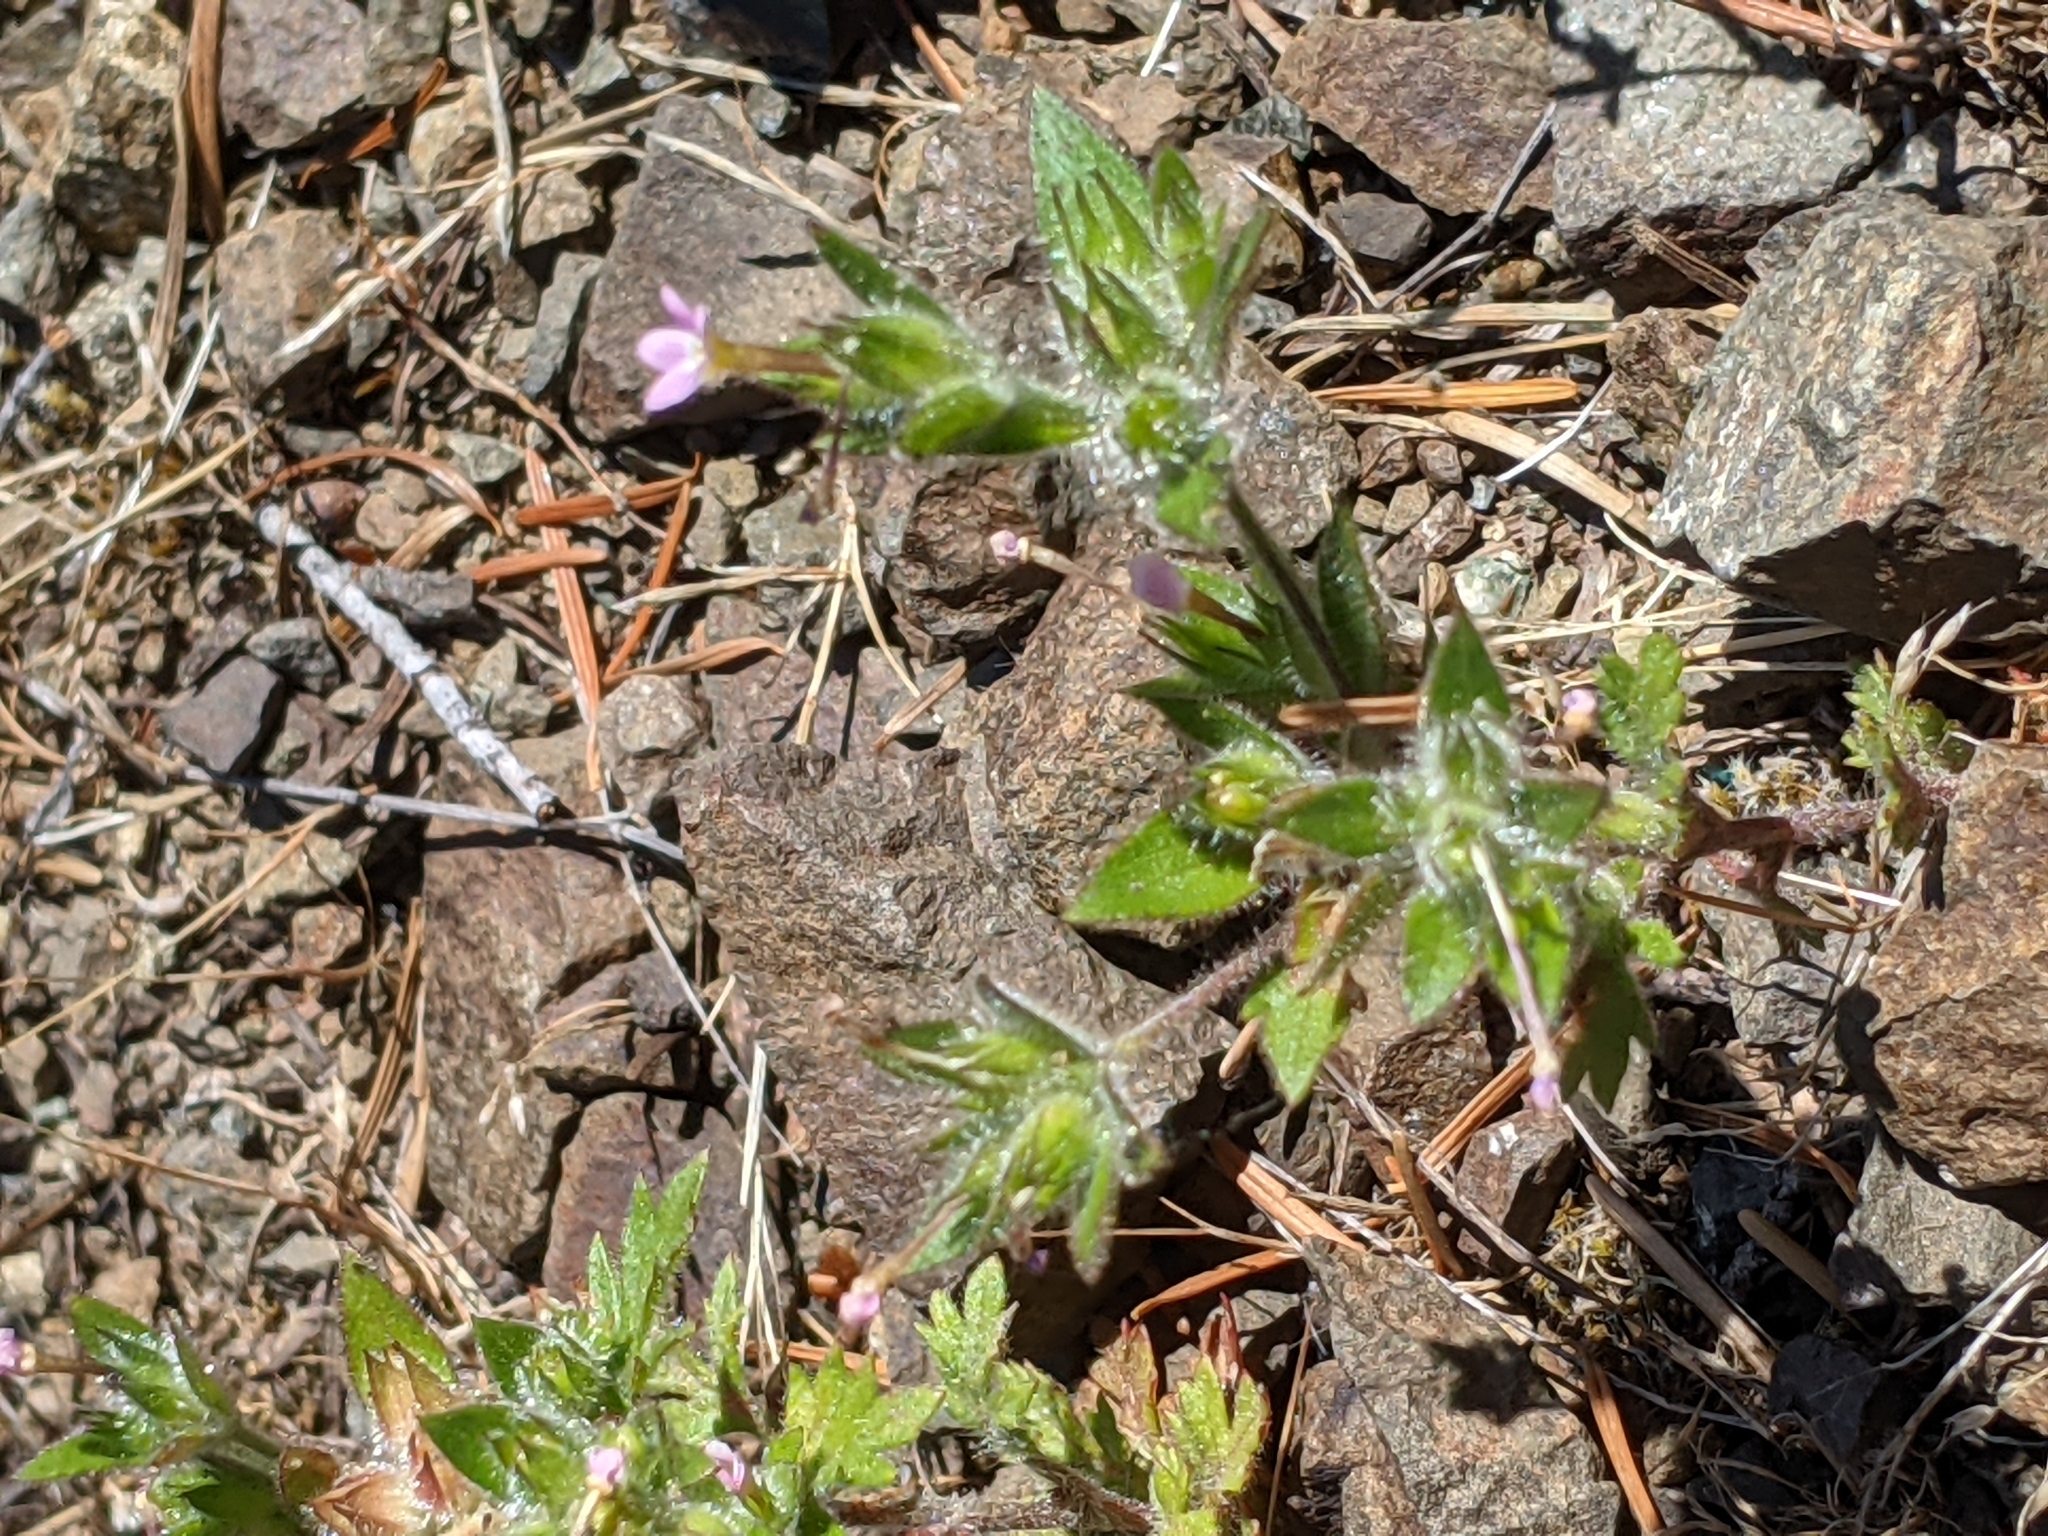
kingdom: Plantae
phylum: Tracheophyta
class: Magnoliopsida
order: Ericales
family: Polemoniaceae
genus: Collomia
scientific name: Collomia heterophylla
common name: Variable-leaved collomia
